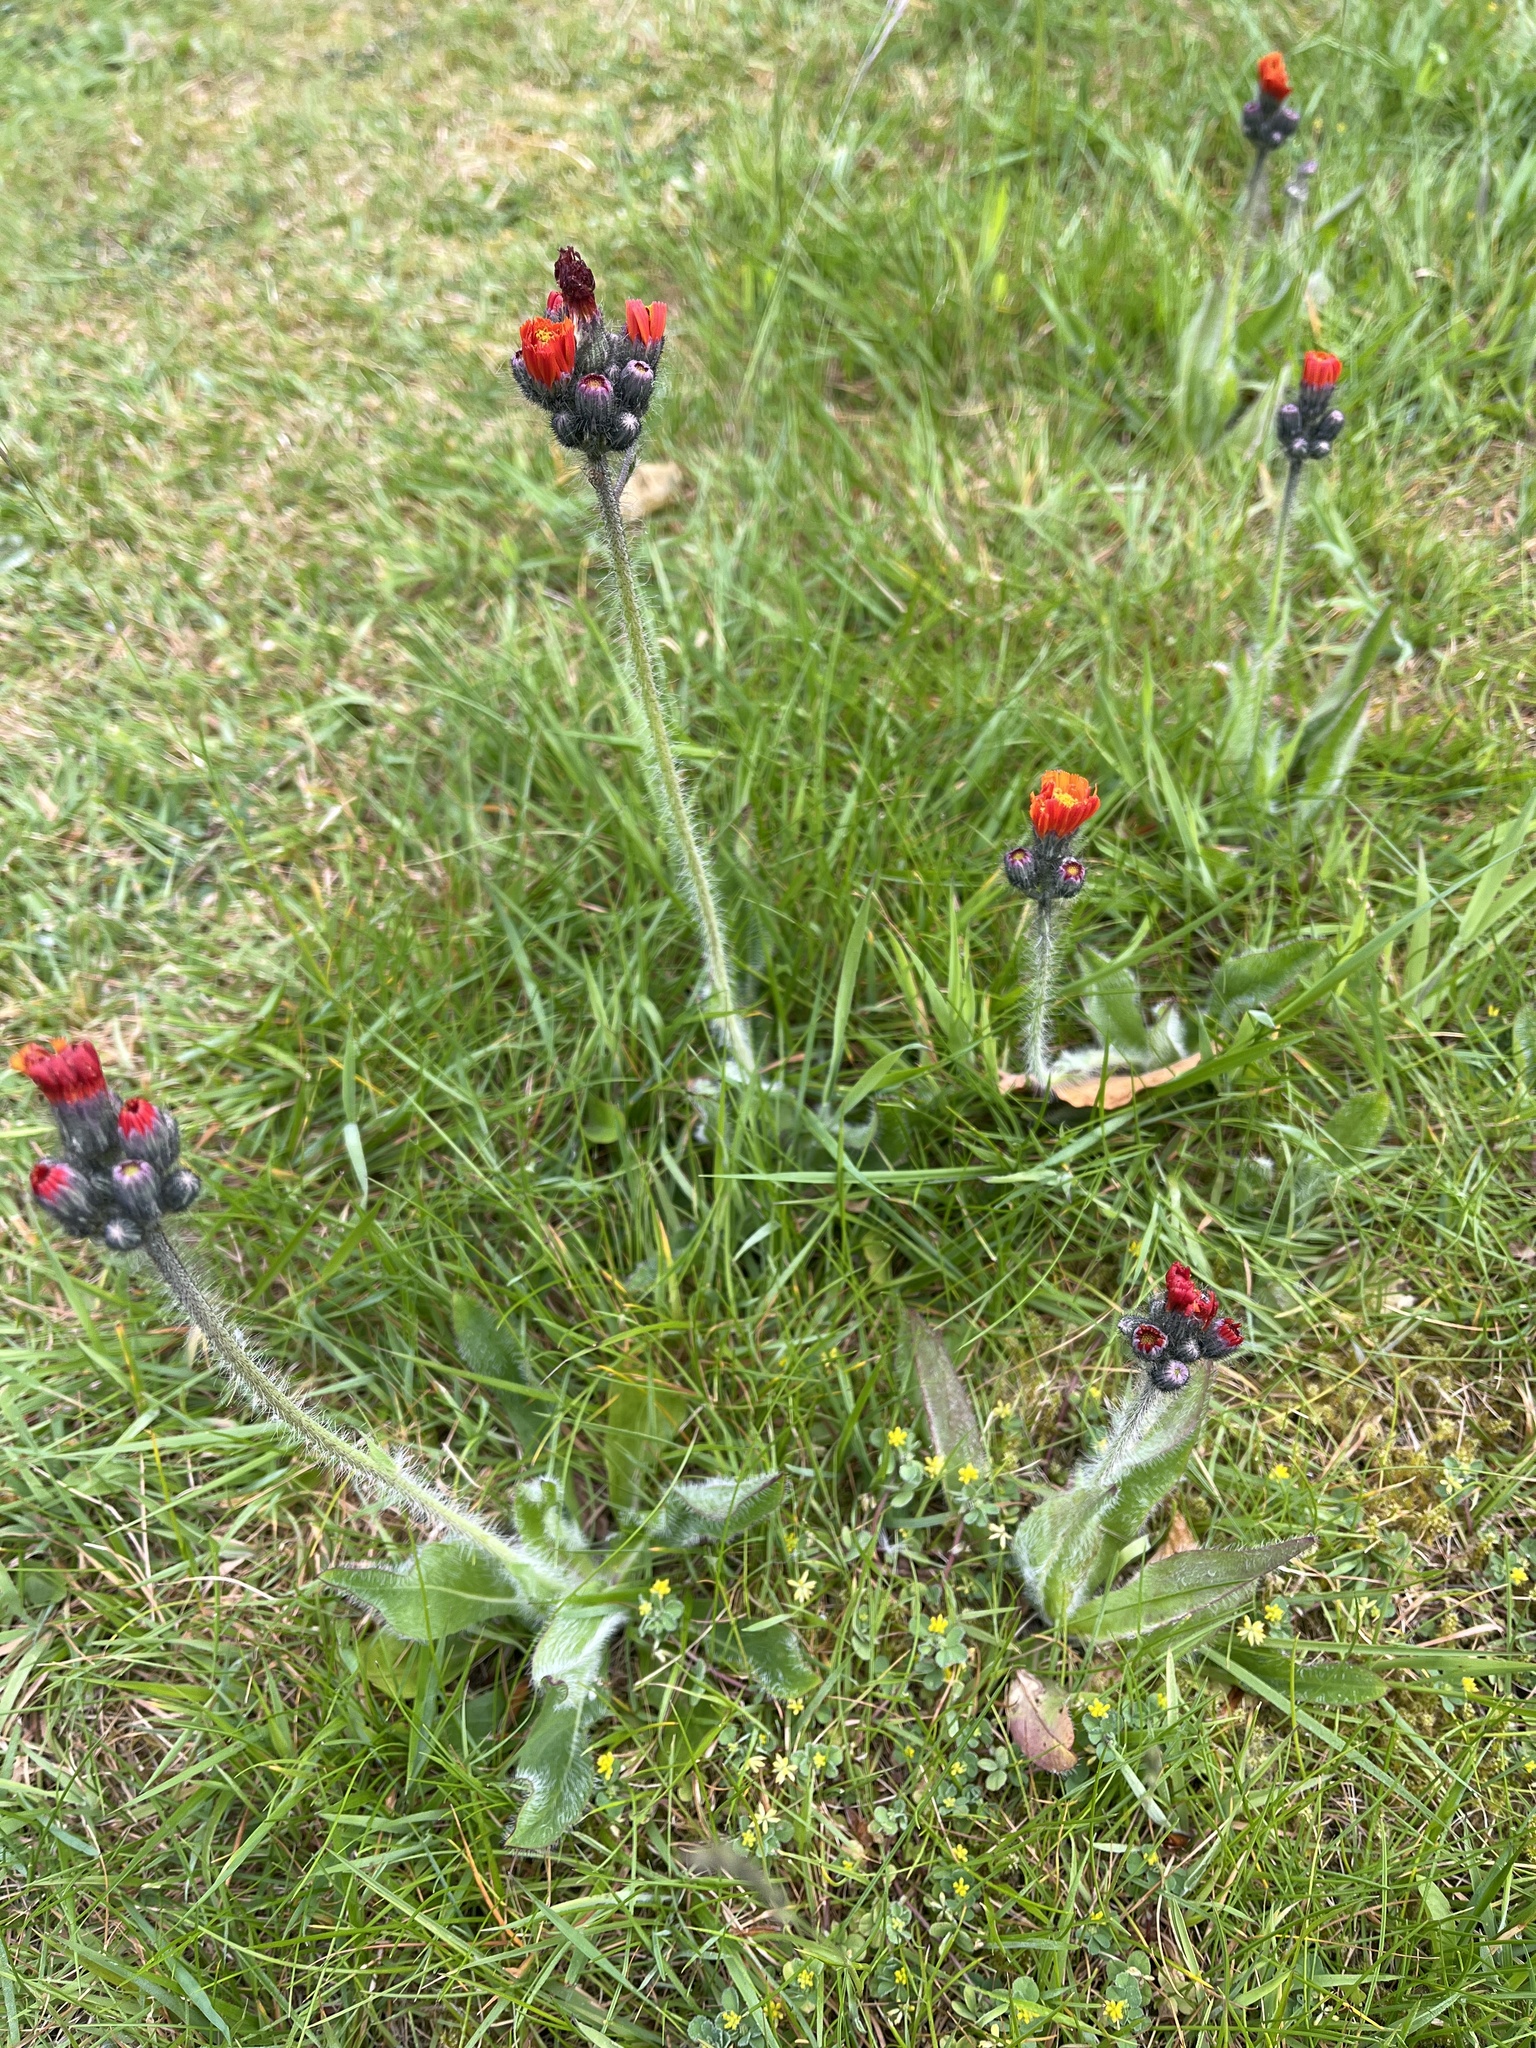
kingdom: Plantae
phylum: Tracheophyta
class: Magnoliopsida
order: Asterales
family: Asteraceae
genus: Pilosella
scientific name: Pilosella aurantiaca
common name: Fox-and-cubs
